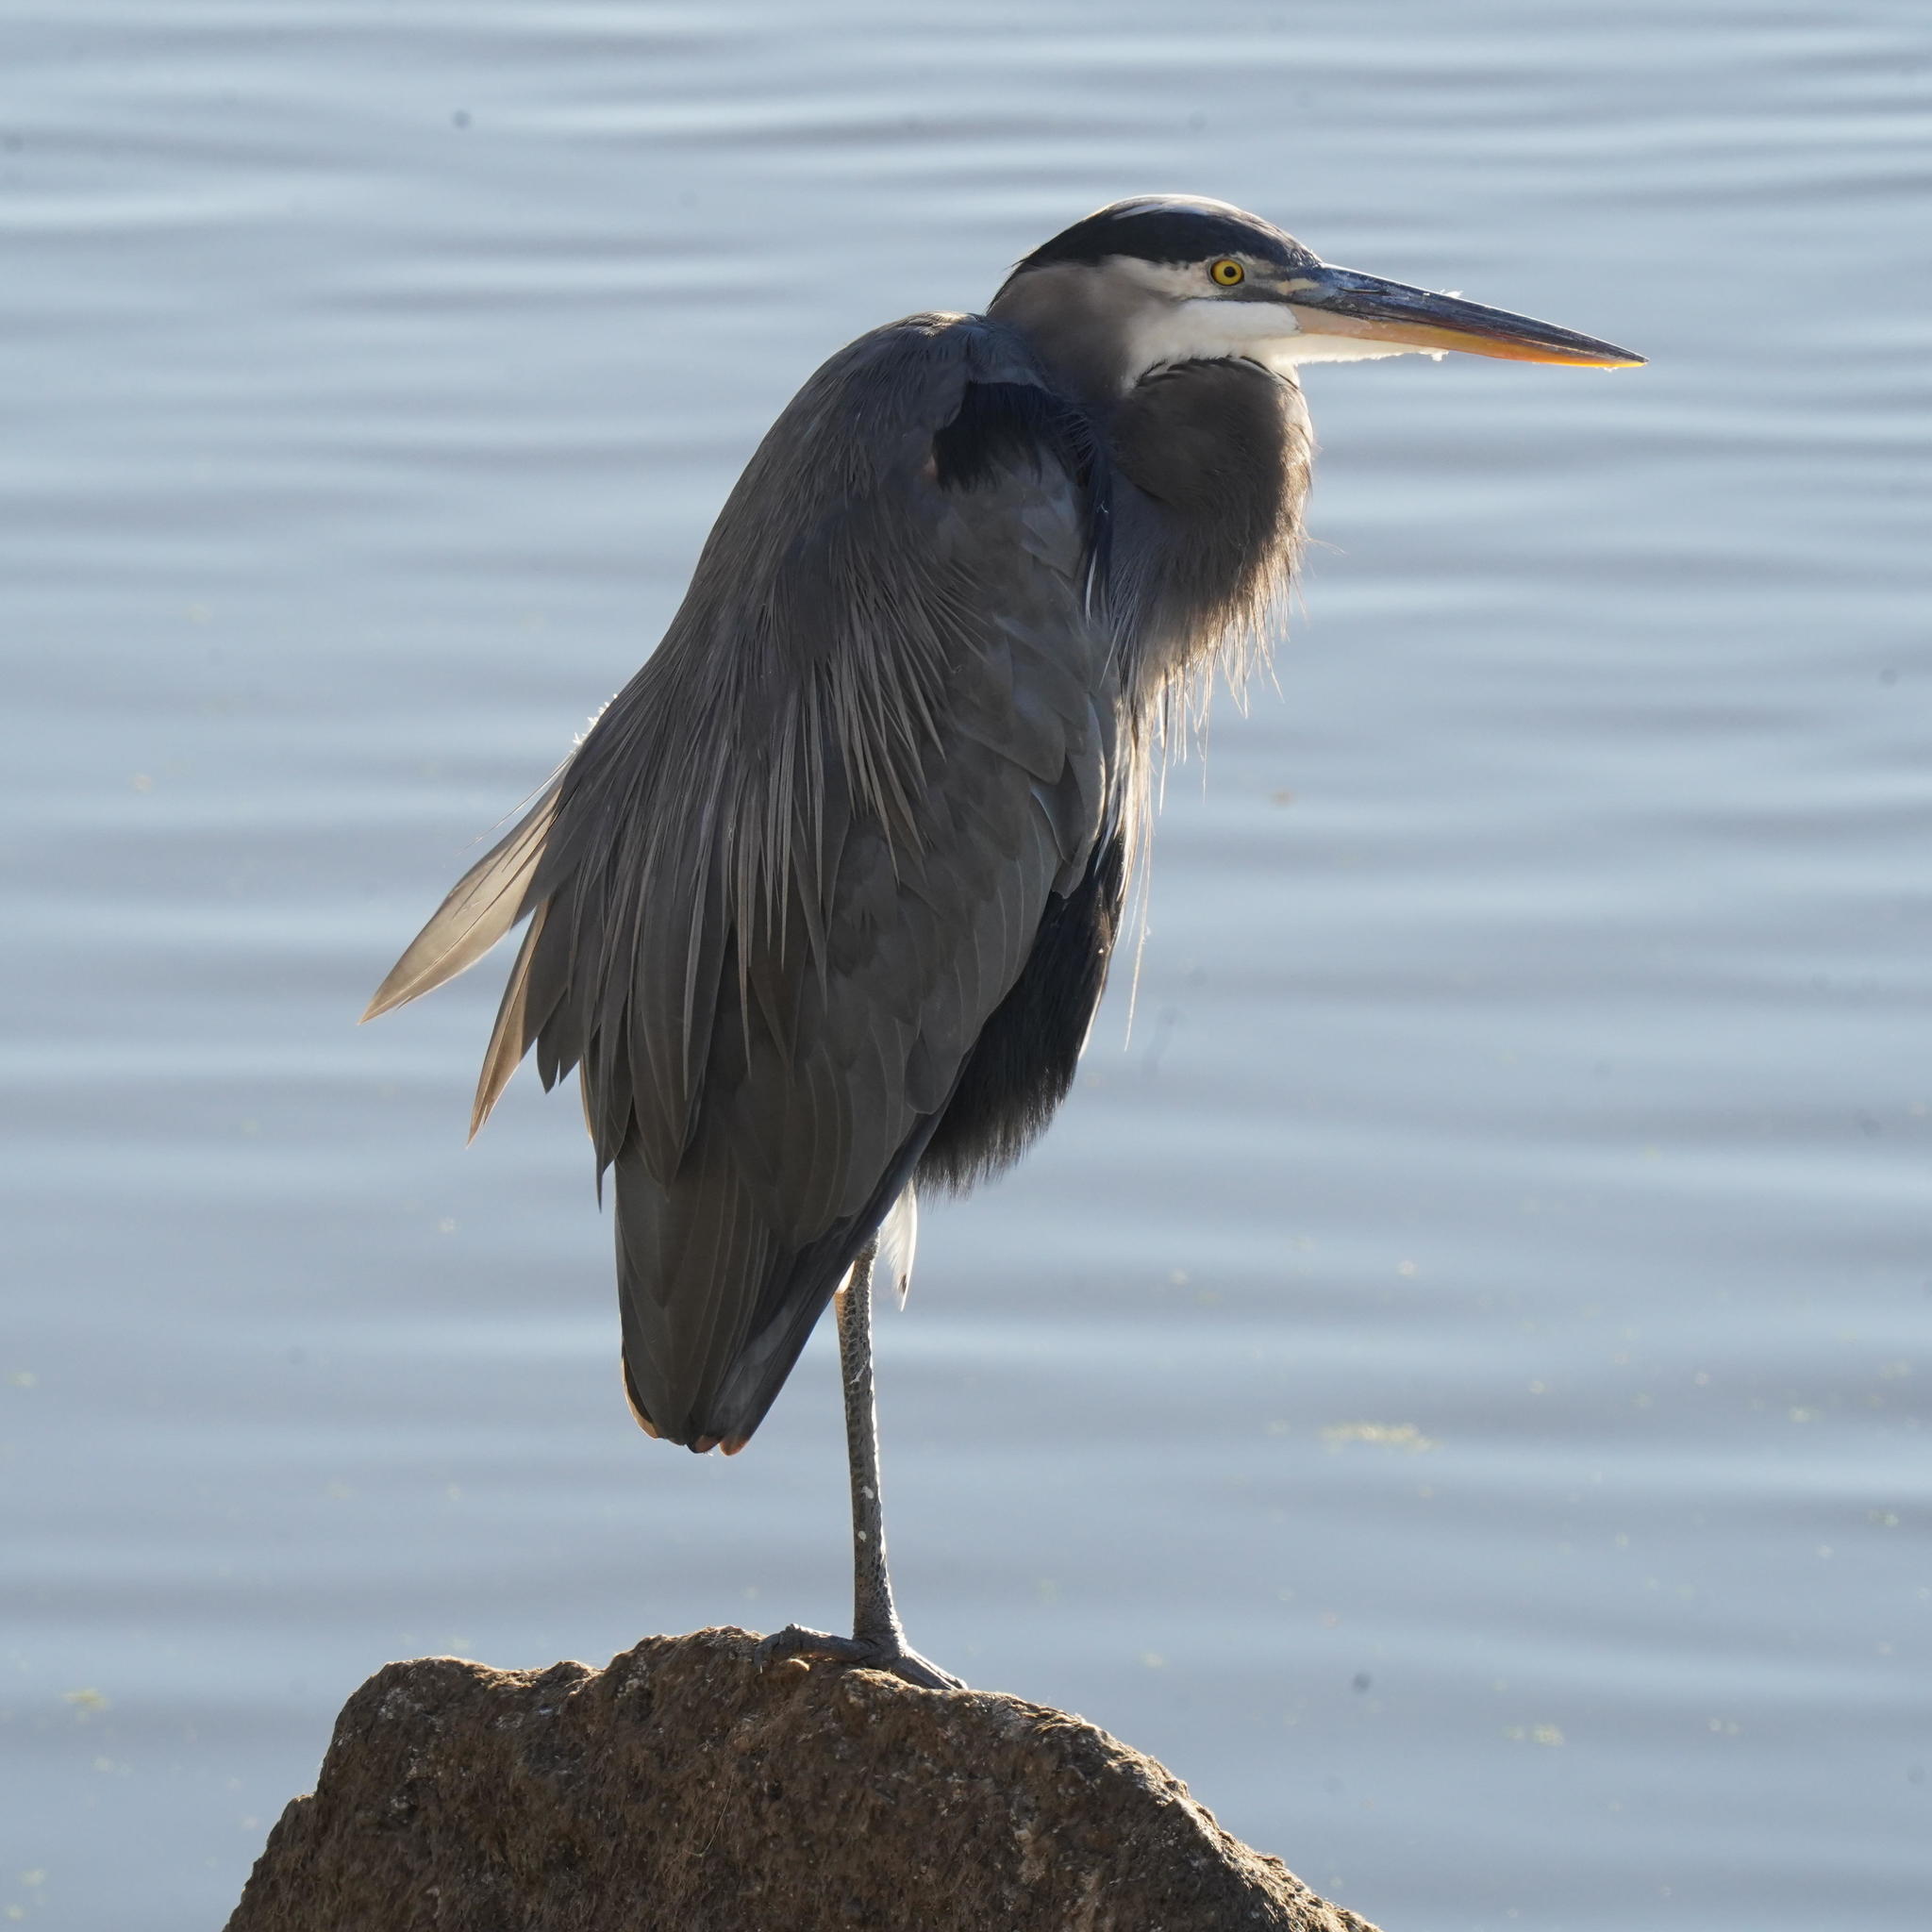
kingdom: Animalia
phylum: Chordata
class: Aves
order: Pelecaniformes
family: Ardeidae
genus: Ardea
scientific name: Ardea herodias
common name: Great blue heron
